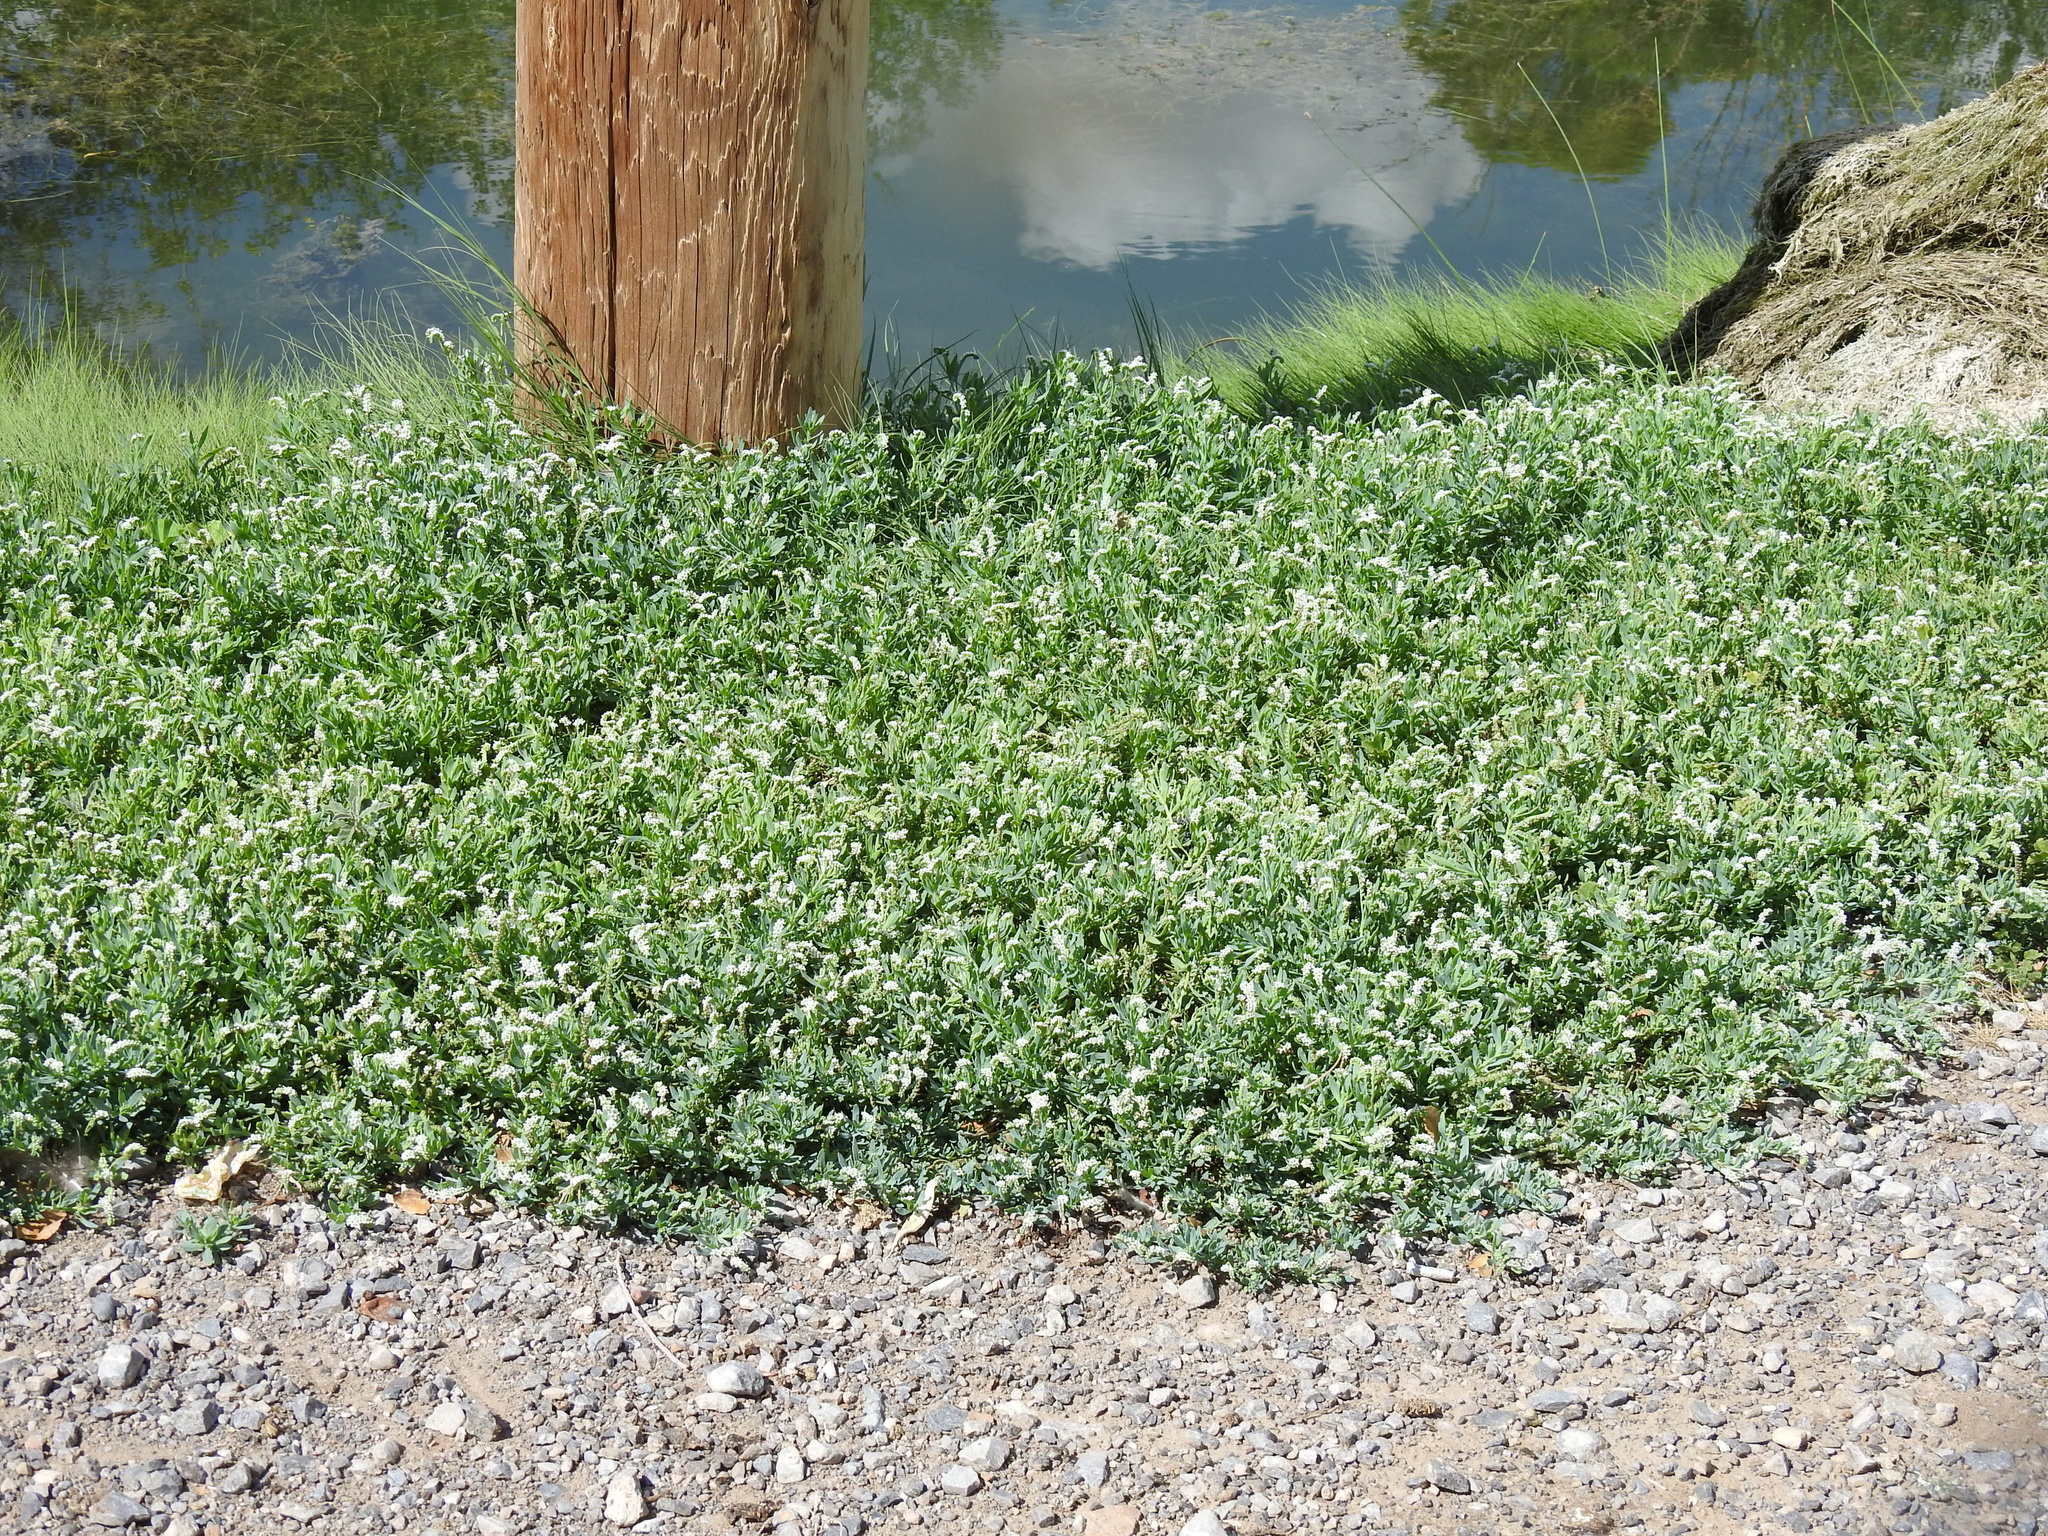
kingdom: Plantae
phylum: Tracheophyta
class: Magnoliopsida
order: Boraginales
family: Heliotropiaceae
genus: Heliotropium
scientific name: Heliotropium curassavicum
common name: Seaside heliotrope
